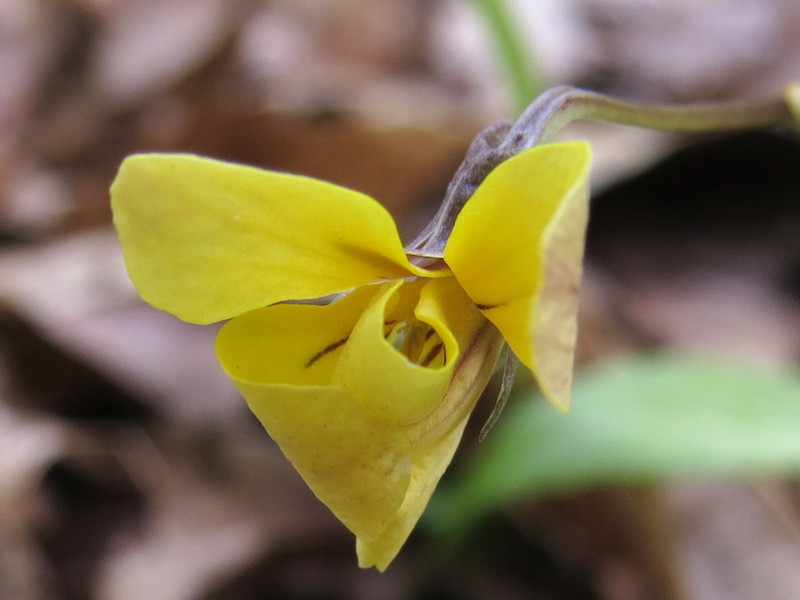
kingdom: Plantae
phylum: Tracheophyta
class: Magnoliopsida
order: Malpighiales
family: Violaceae
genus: Viola
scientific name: Viola hastata
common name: Spear-leaf violet
